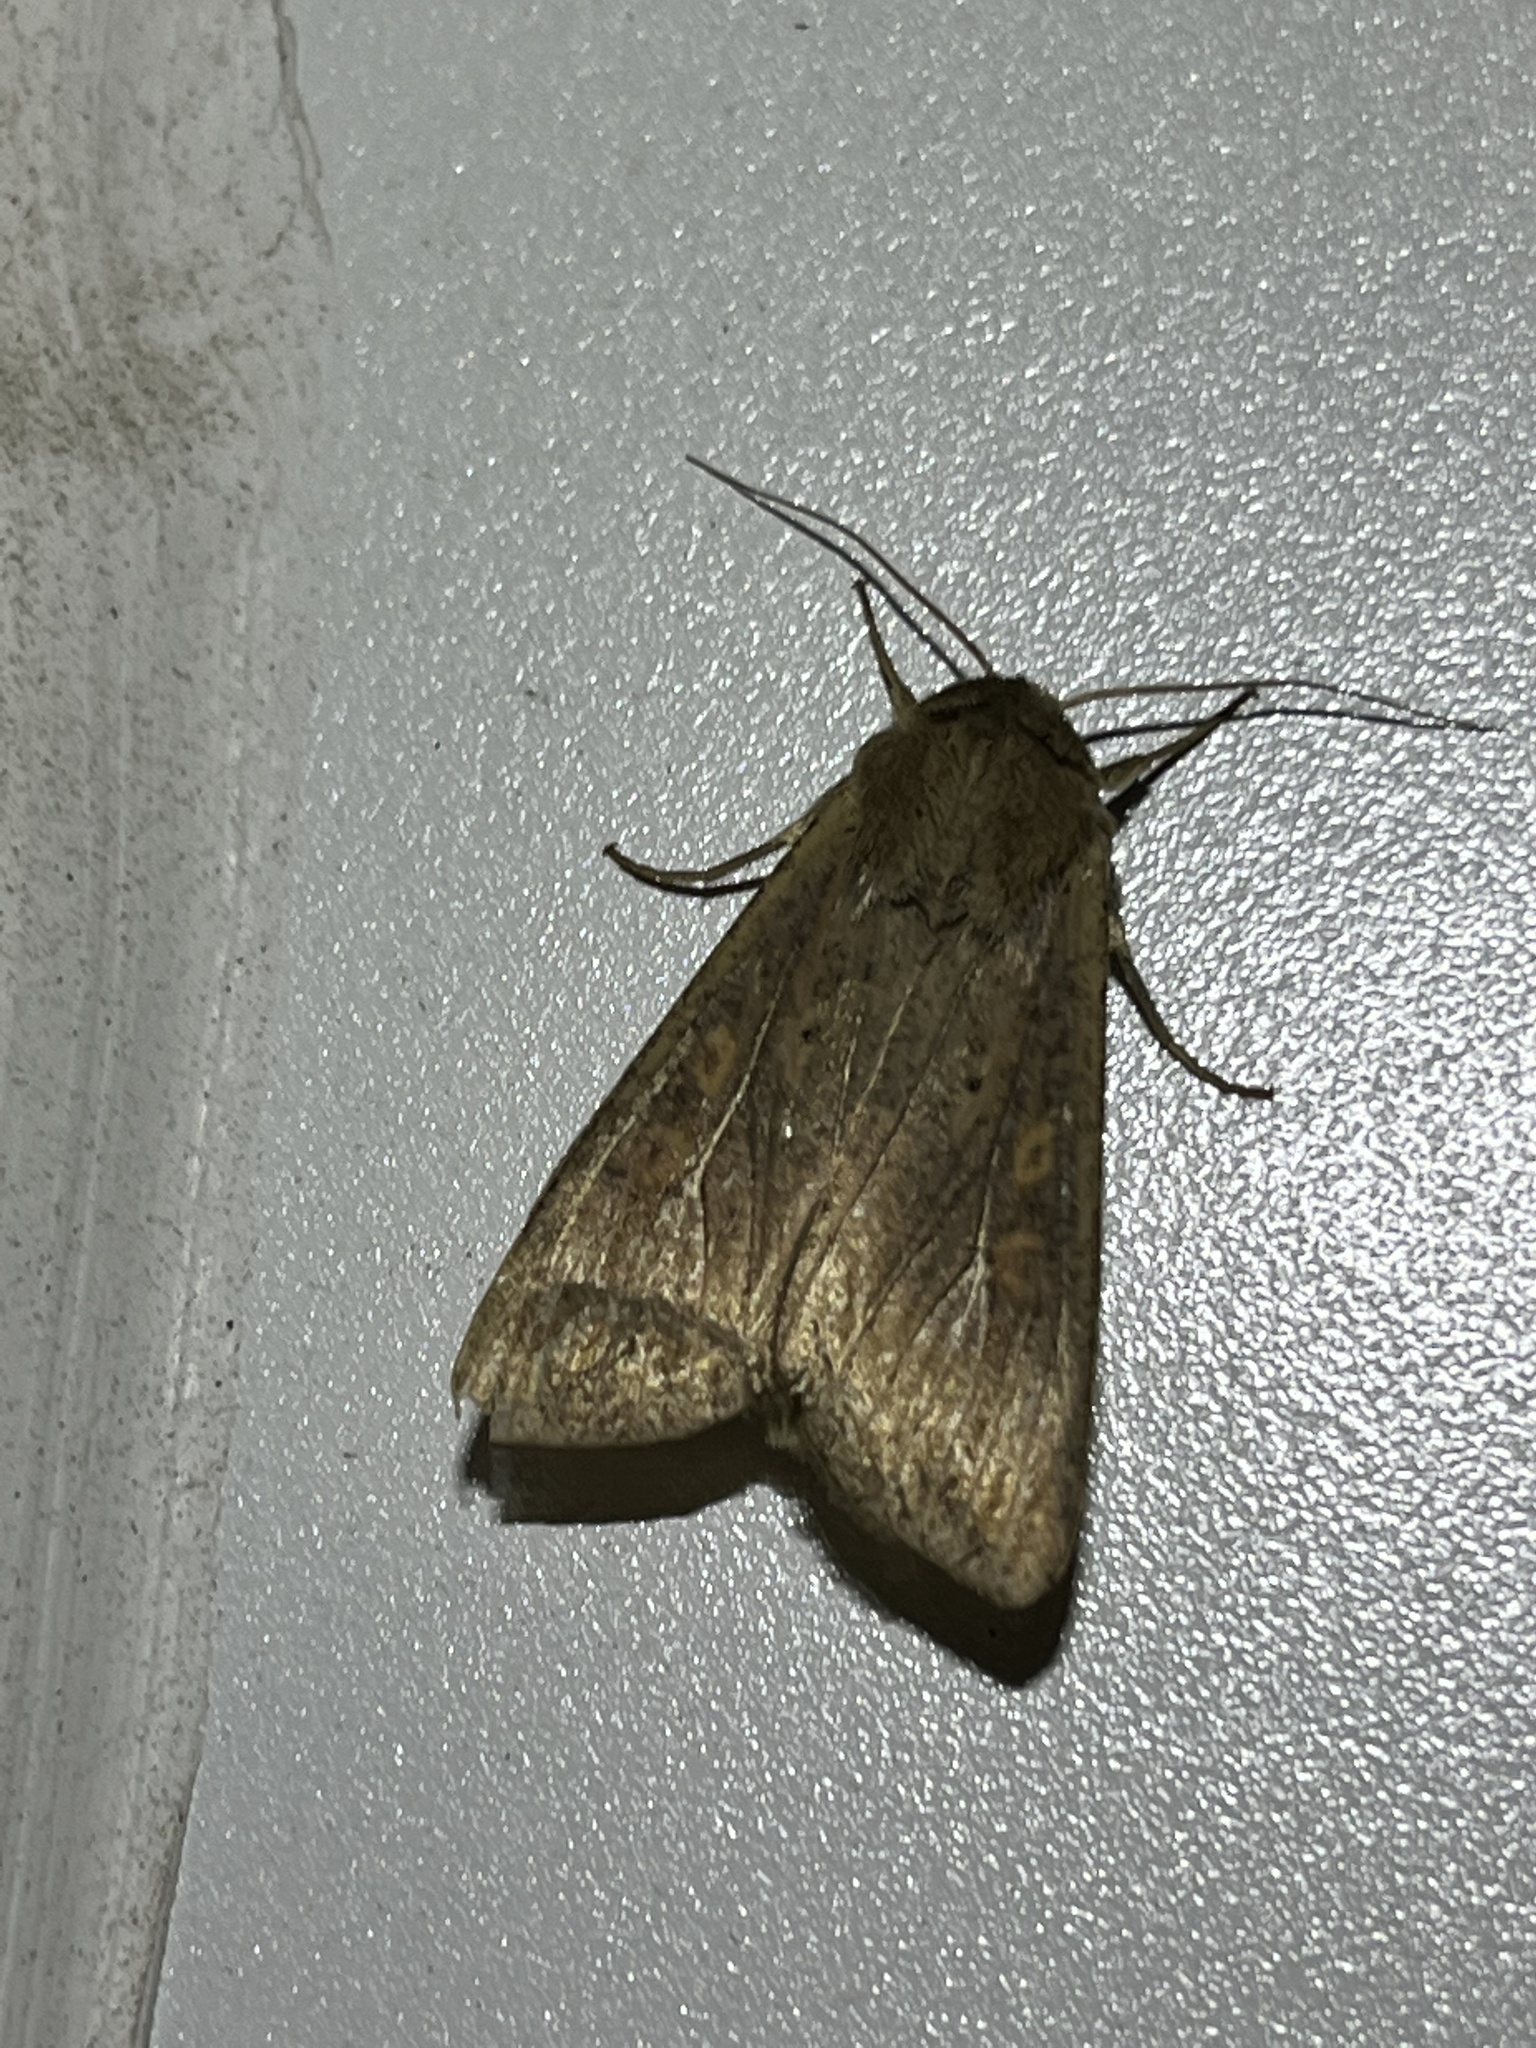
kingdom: Animalia
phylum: Arthropoda
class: Insecta
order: Lepidoptera
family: Noctuidae
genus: Mythimna
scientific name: Mythimna unipuncta
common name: White-speck
